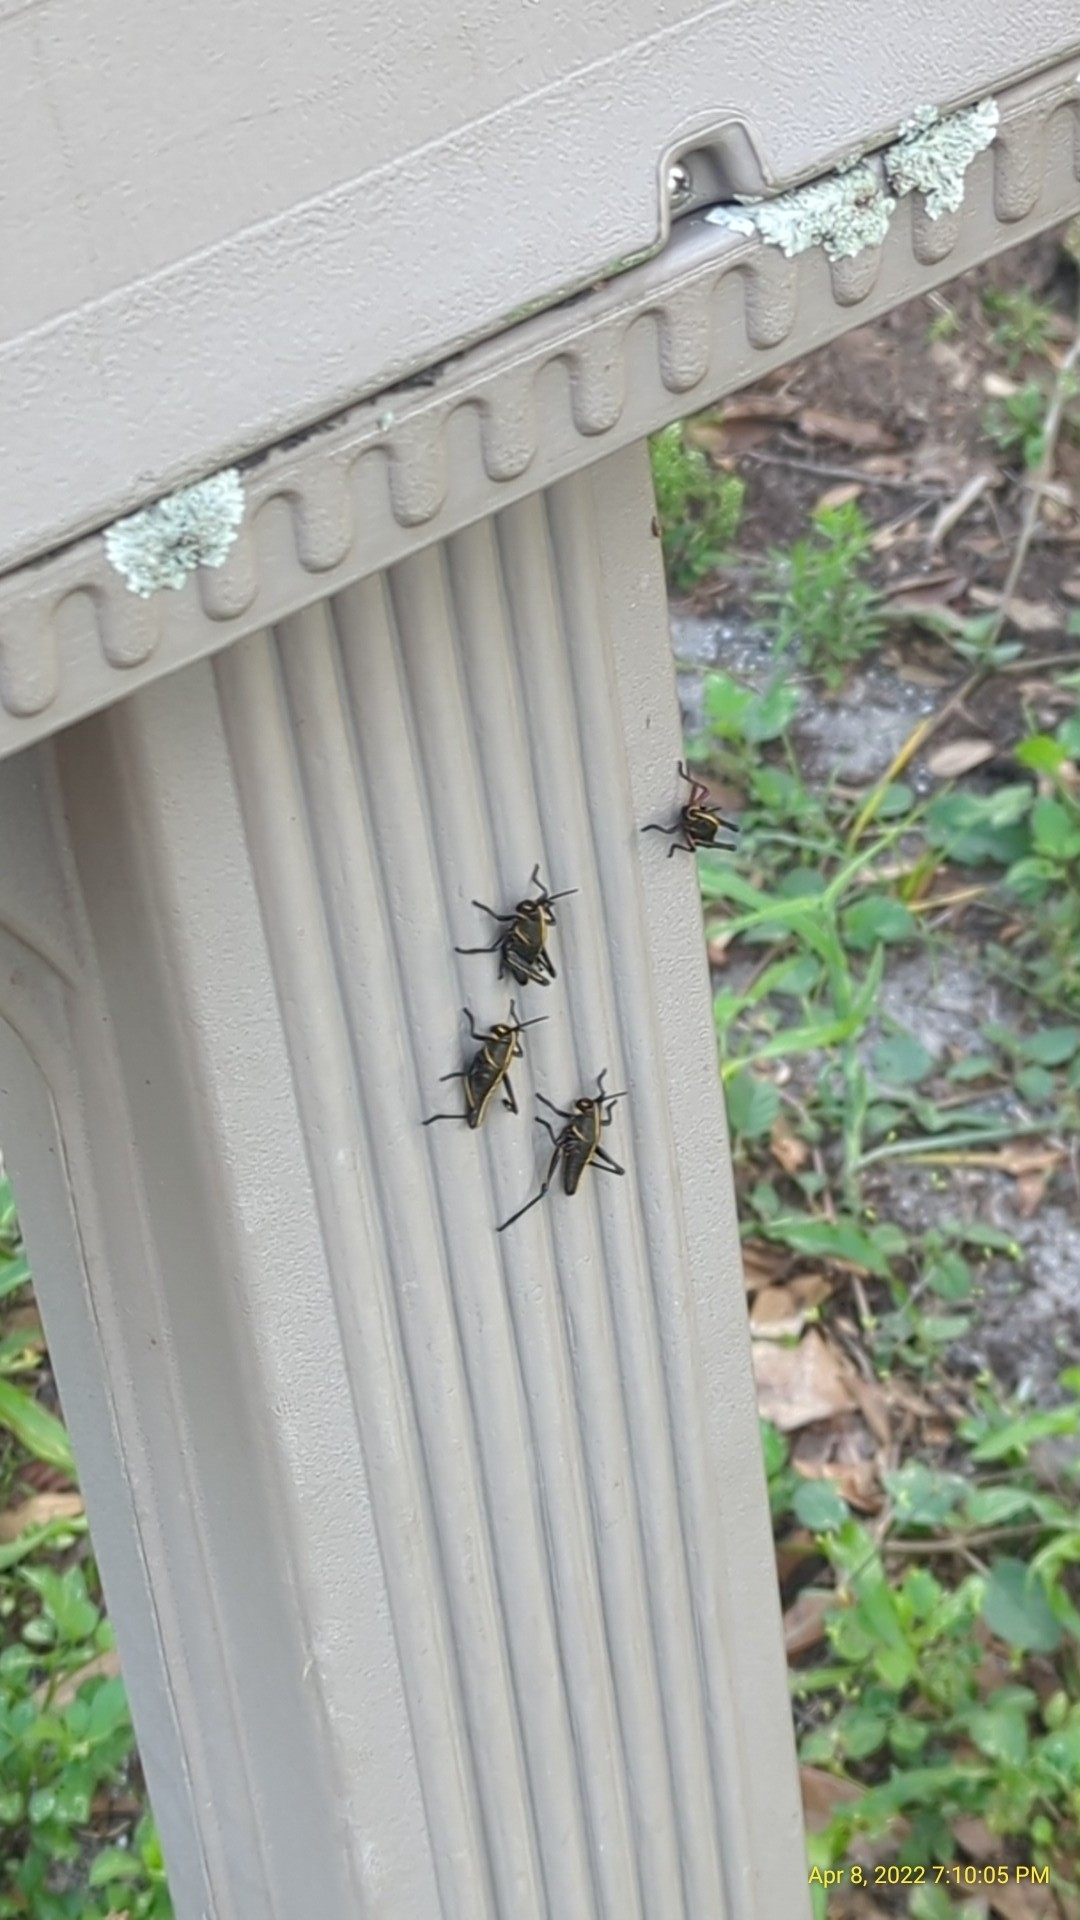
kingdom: Animalia
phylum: Arthropoda
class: Insecta
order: Orthoptera
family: Romaleidae
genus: Romalea
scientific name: Romalea microptera
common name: Eastern lubber grasshopper
